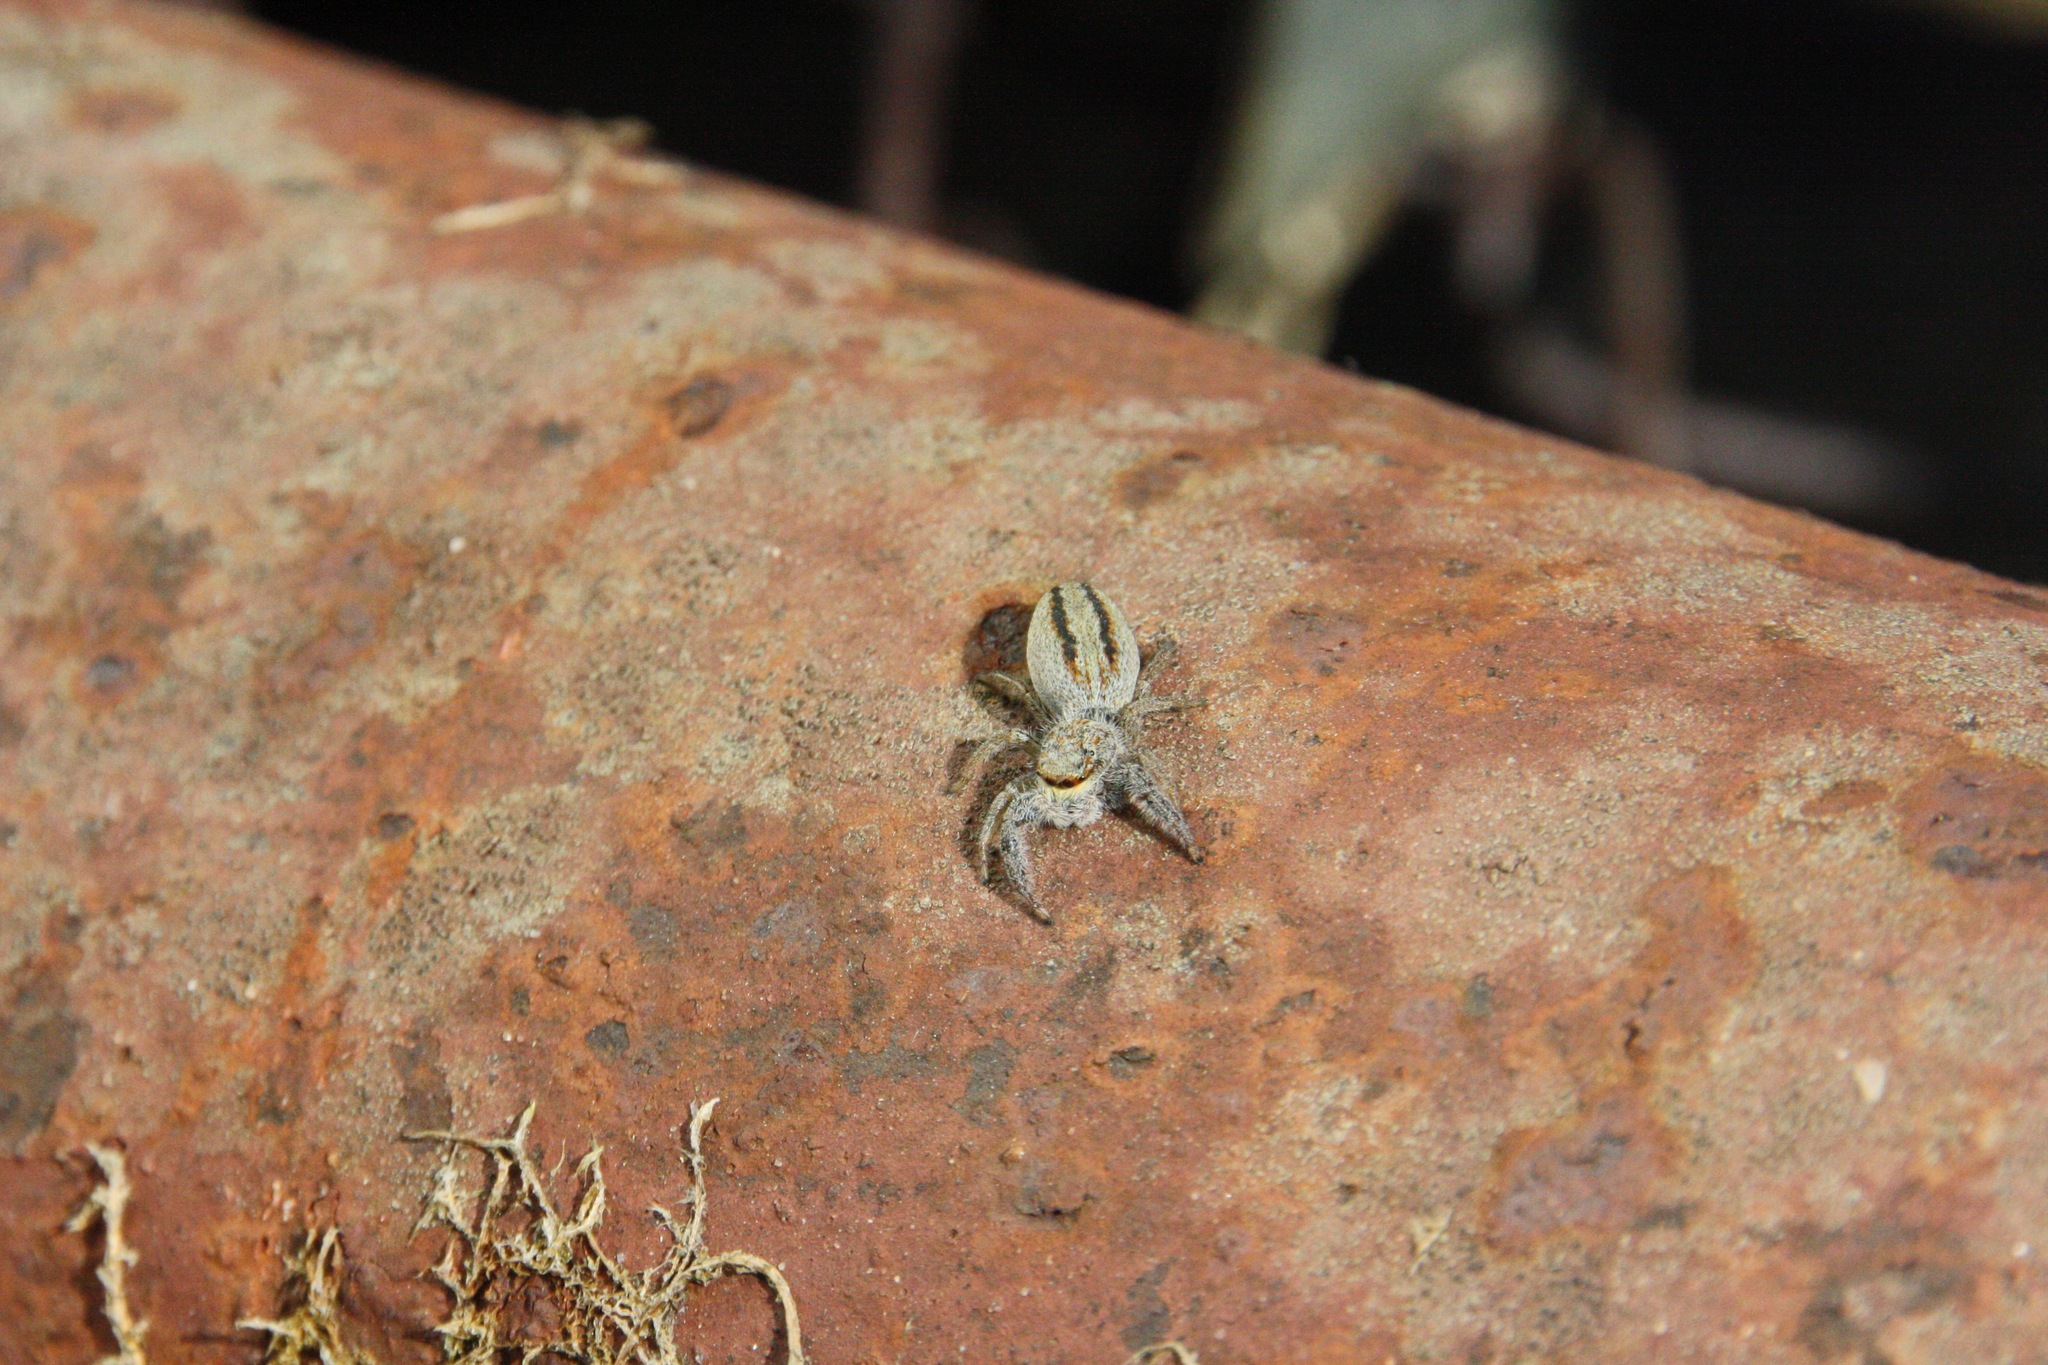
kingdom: Animalia
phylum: Arthropoda
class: Arachnida
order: Araneae
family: Salticidae
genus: Marpissa
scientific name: Marpissa radiata
